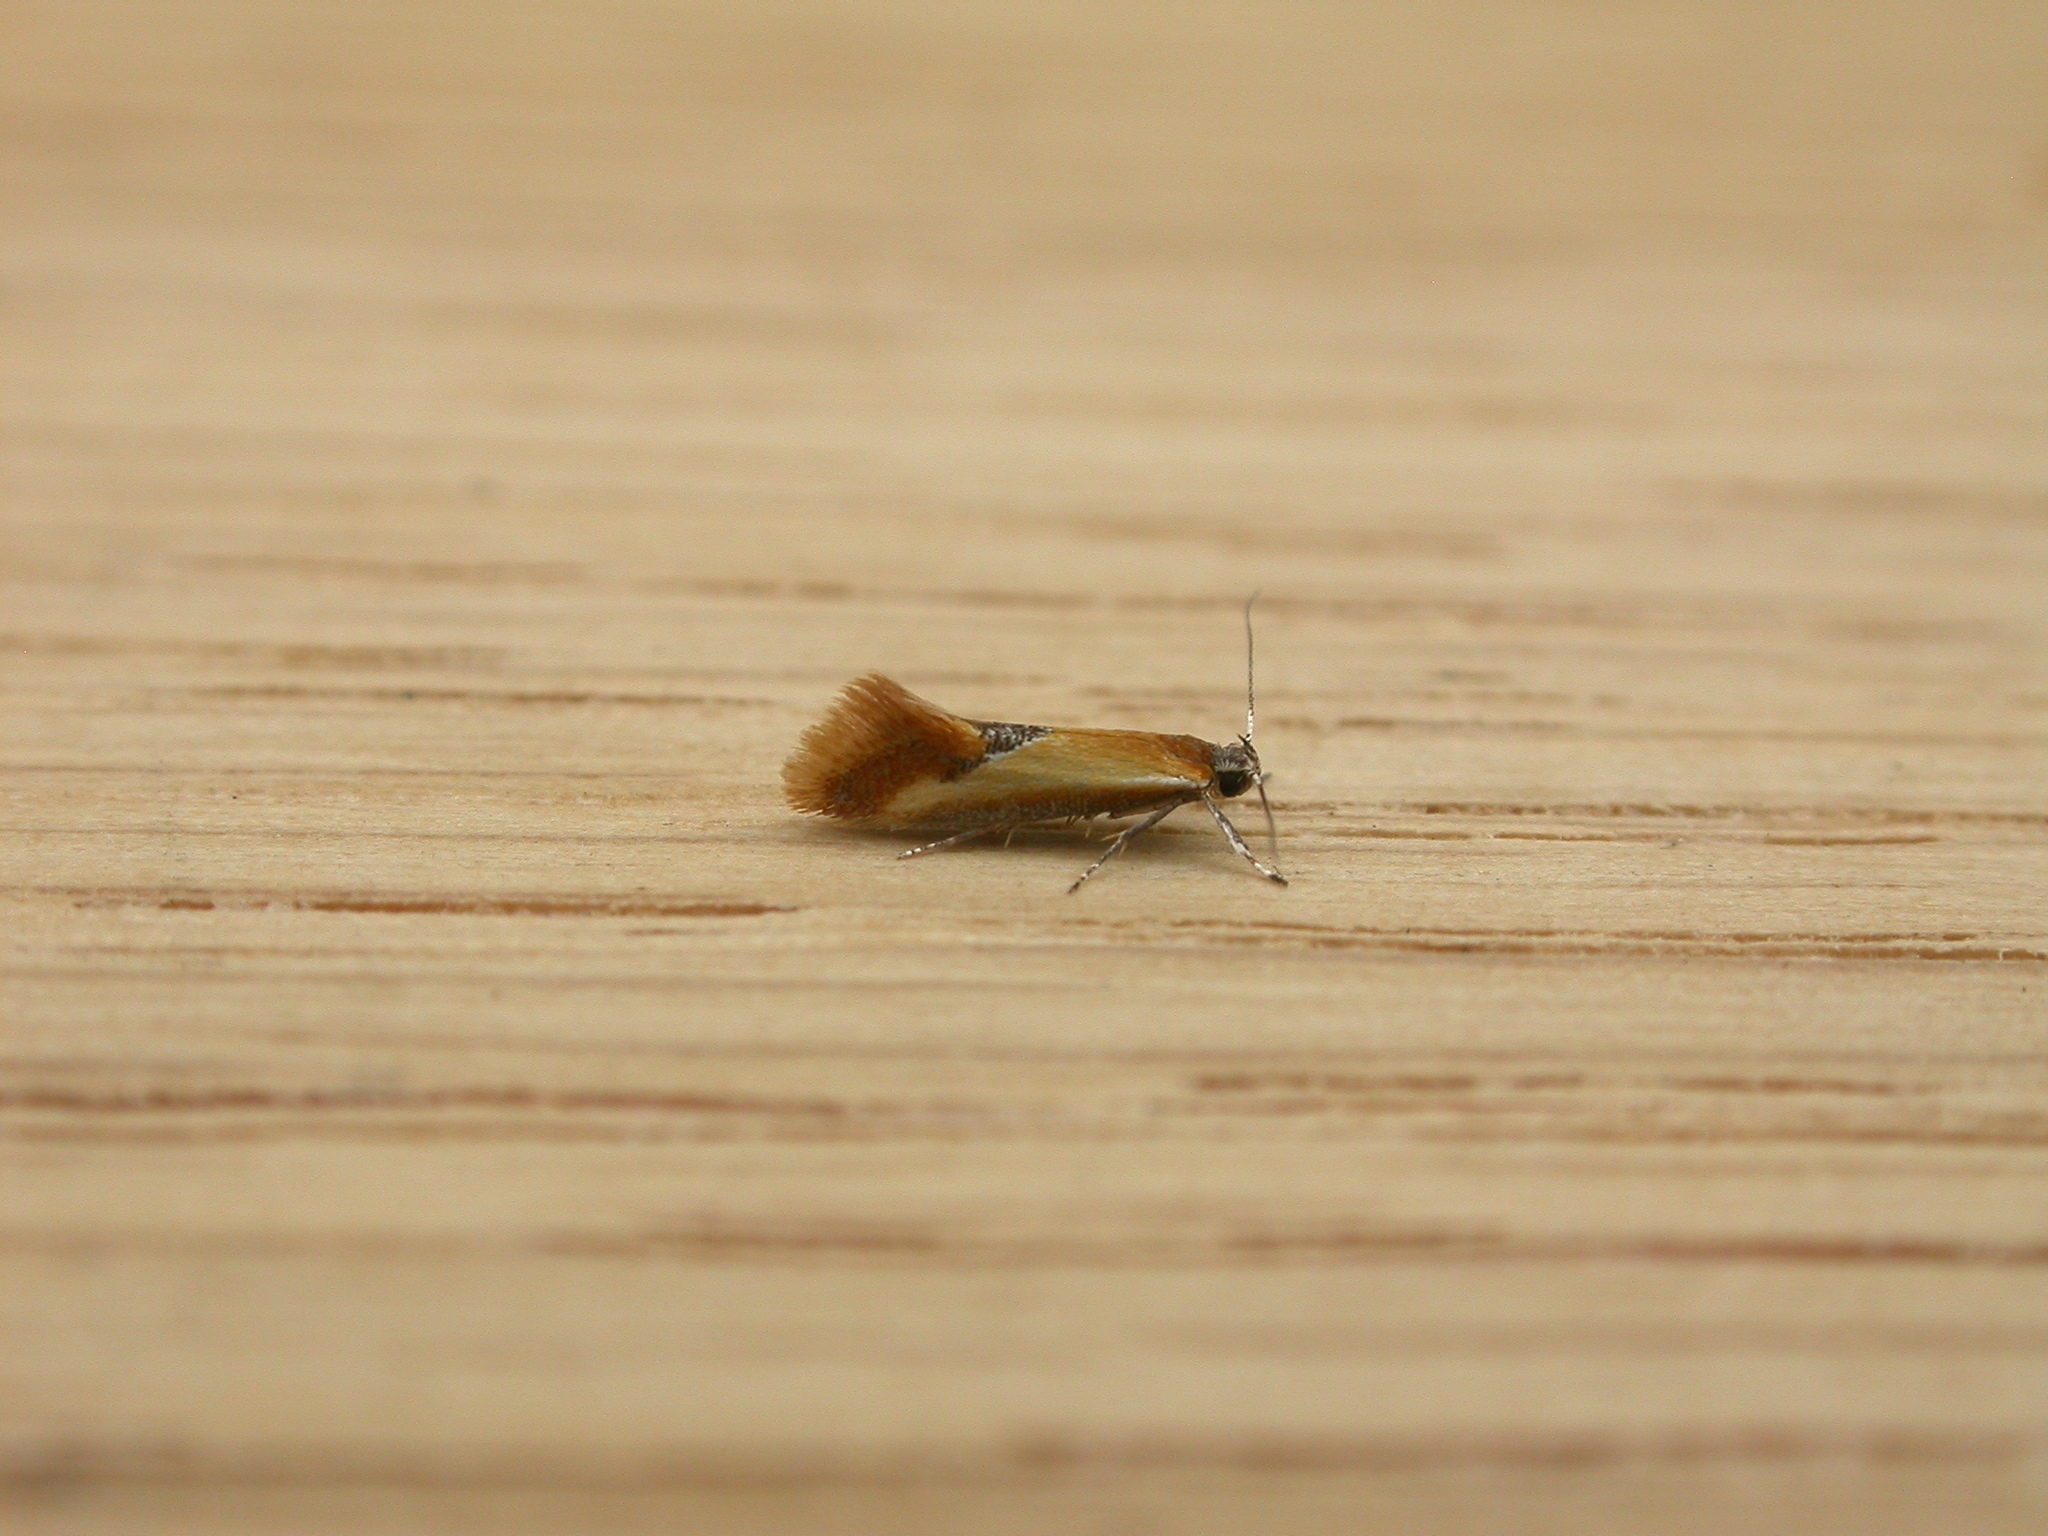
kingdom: Animalia
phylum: Arthropoda
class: Insecta
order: Lepidoptera
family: Oecophoridae
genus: Batia
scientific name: Batia lunaris
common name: Moth
